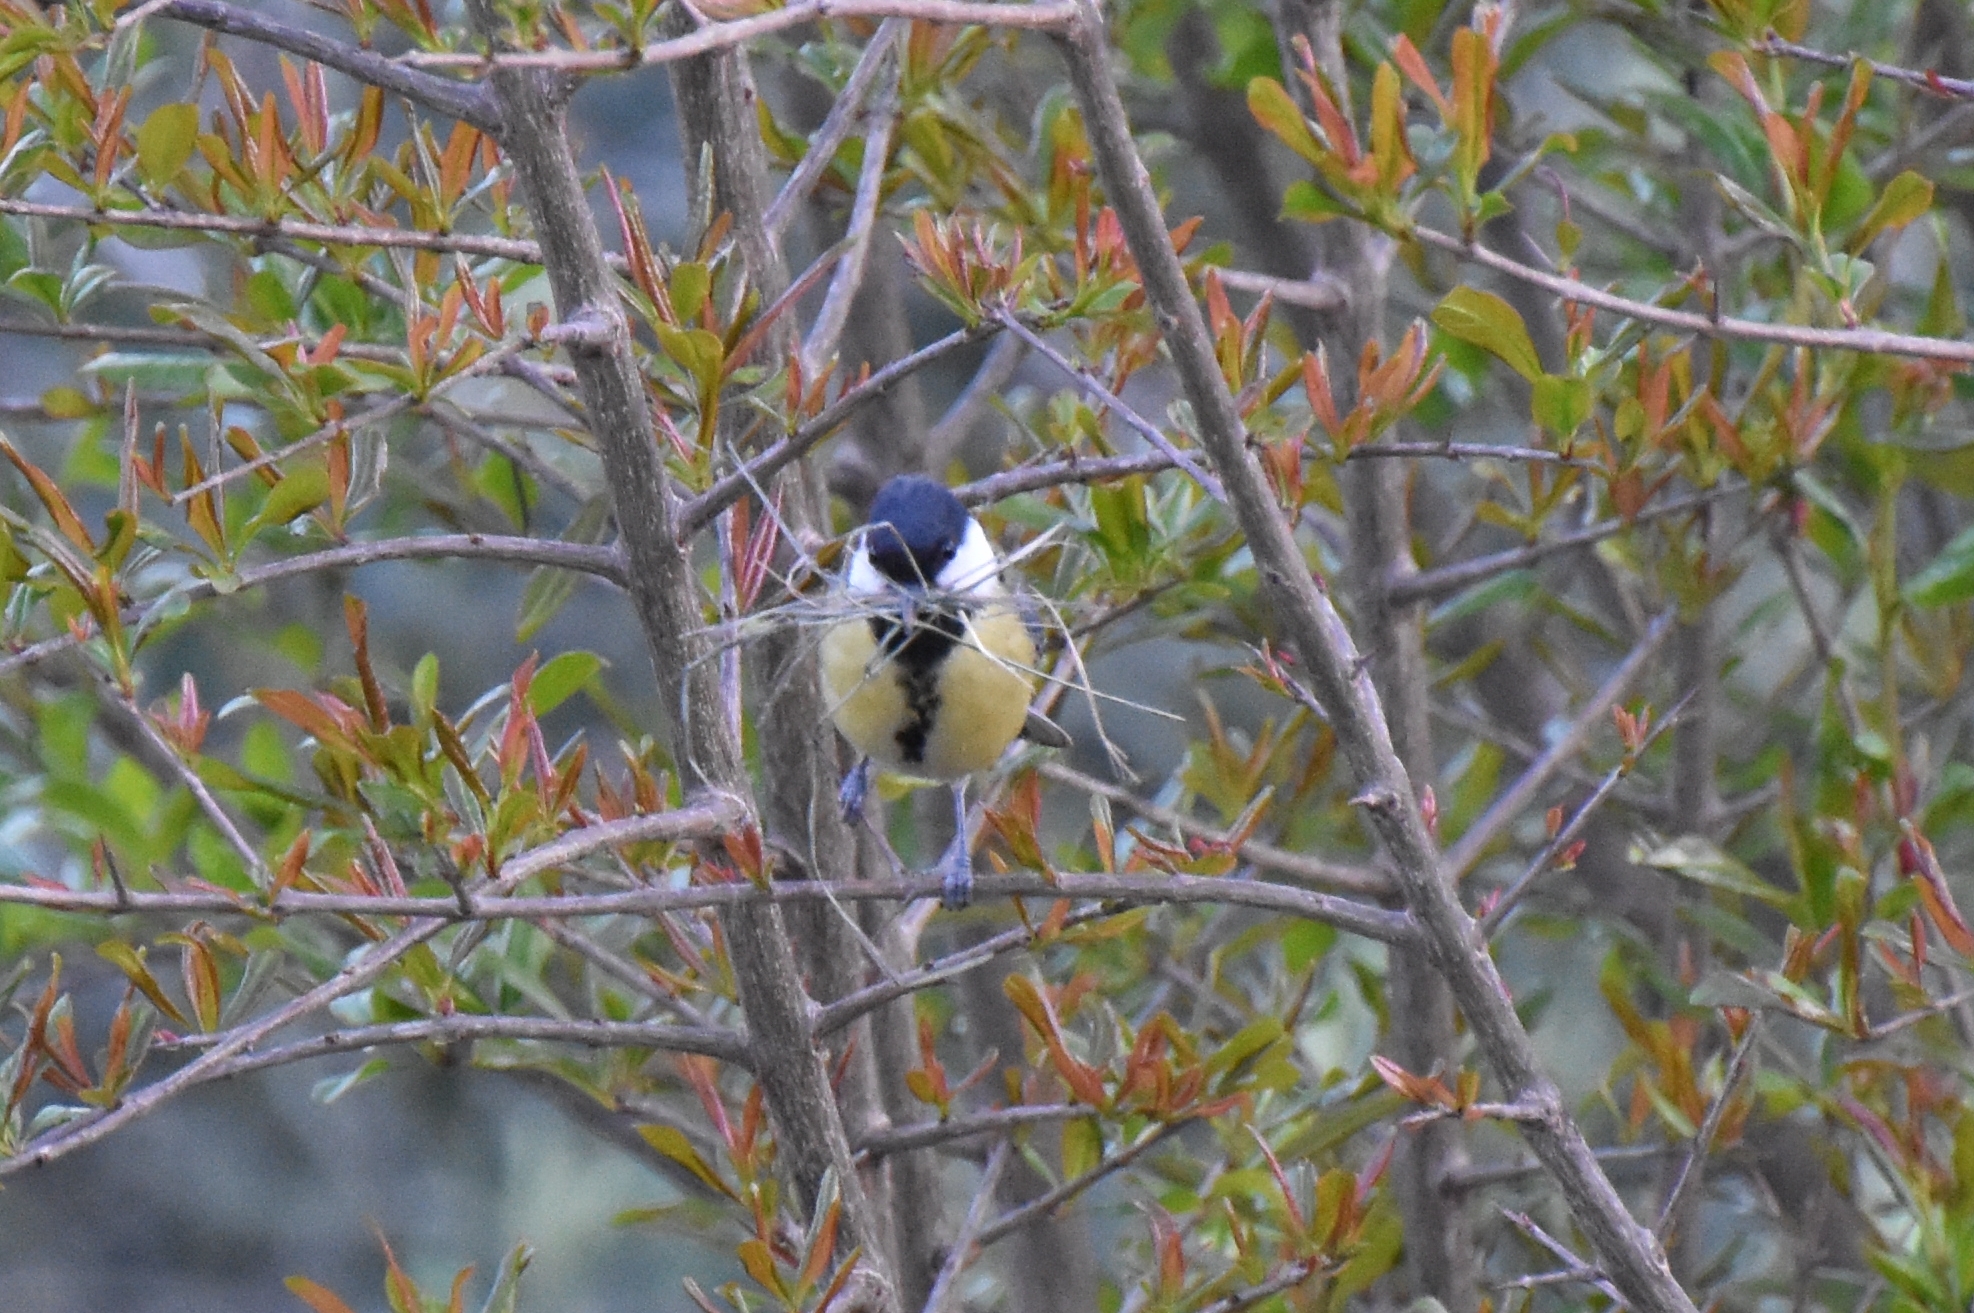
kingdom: Animalia
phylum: Chordata
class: Aves
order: Passeriformes
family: Paridae
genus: Parus
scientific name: Parus major
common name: Great tit
